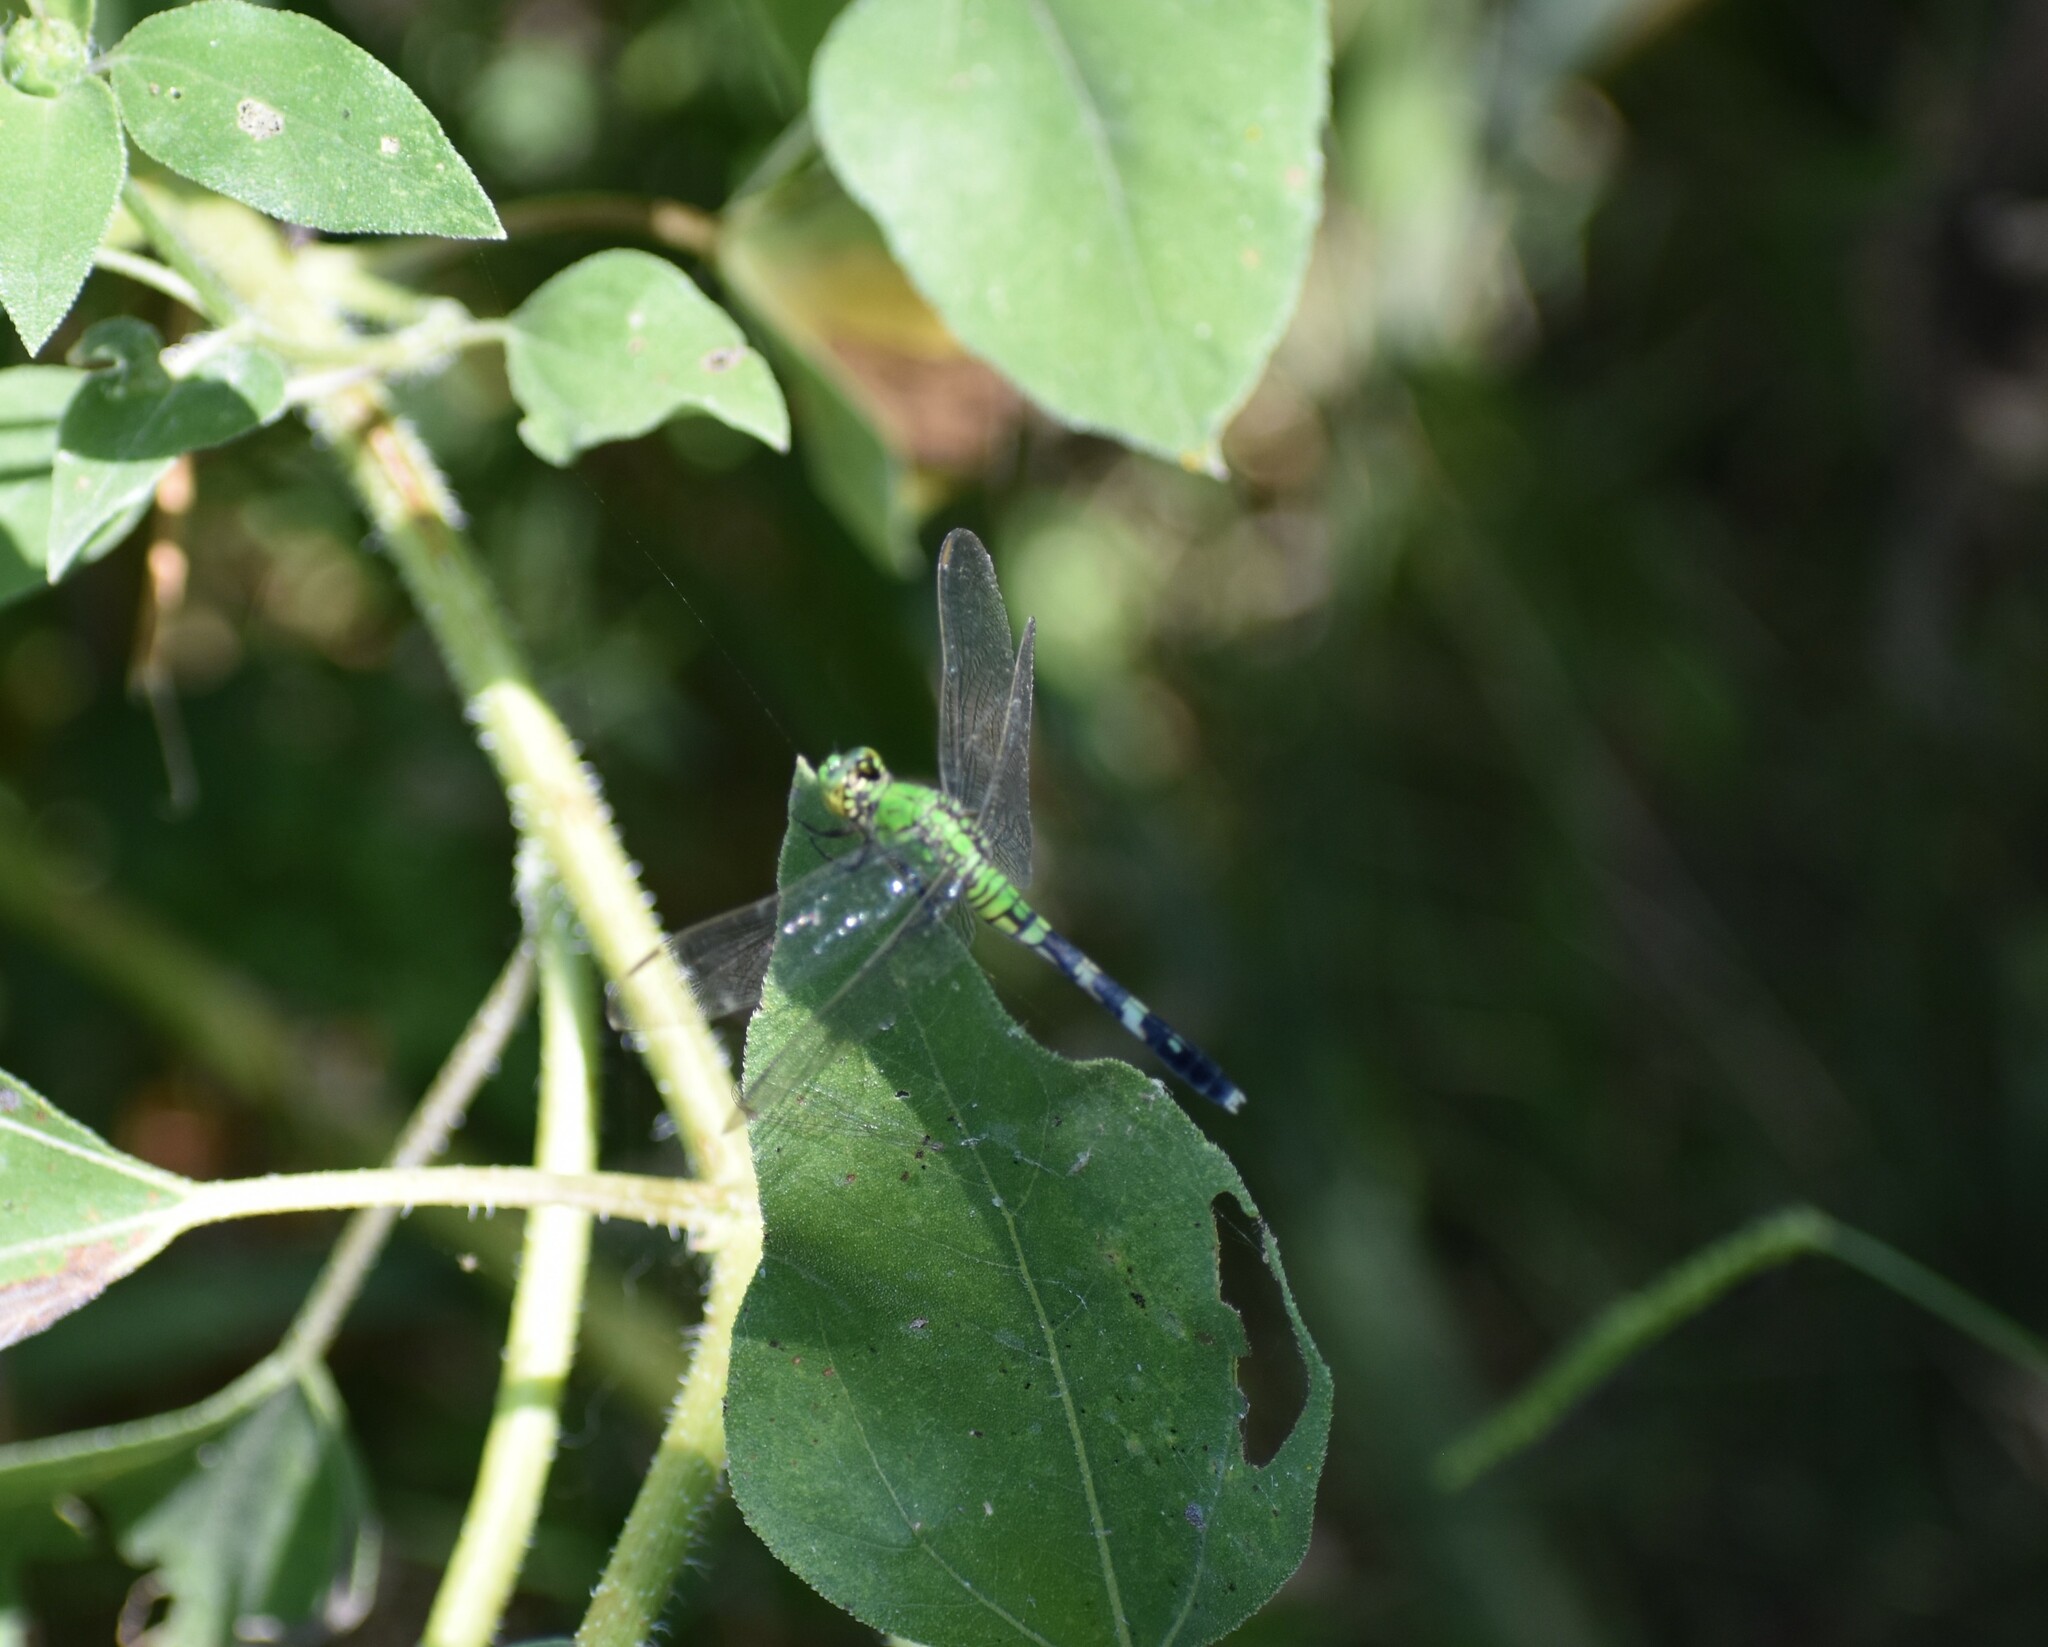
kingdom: Animalia
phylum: Arthropoda
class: Insecta
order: Odonata
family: Libellulidae
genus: Erythemis
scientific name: Erythemis simplicicollis
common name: Eastern pondhawk
